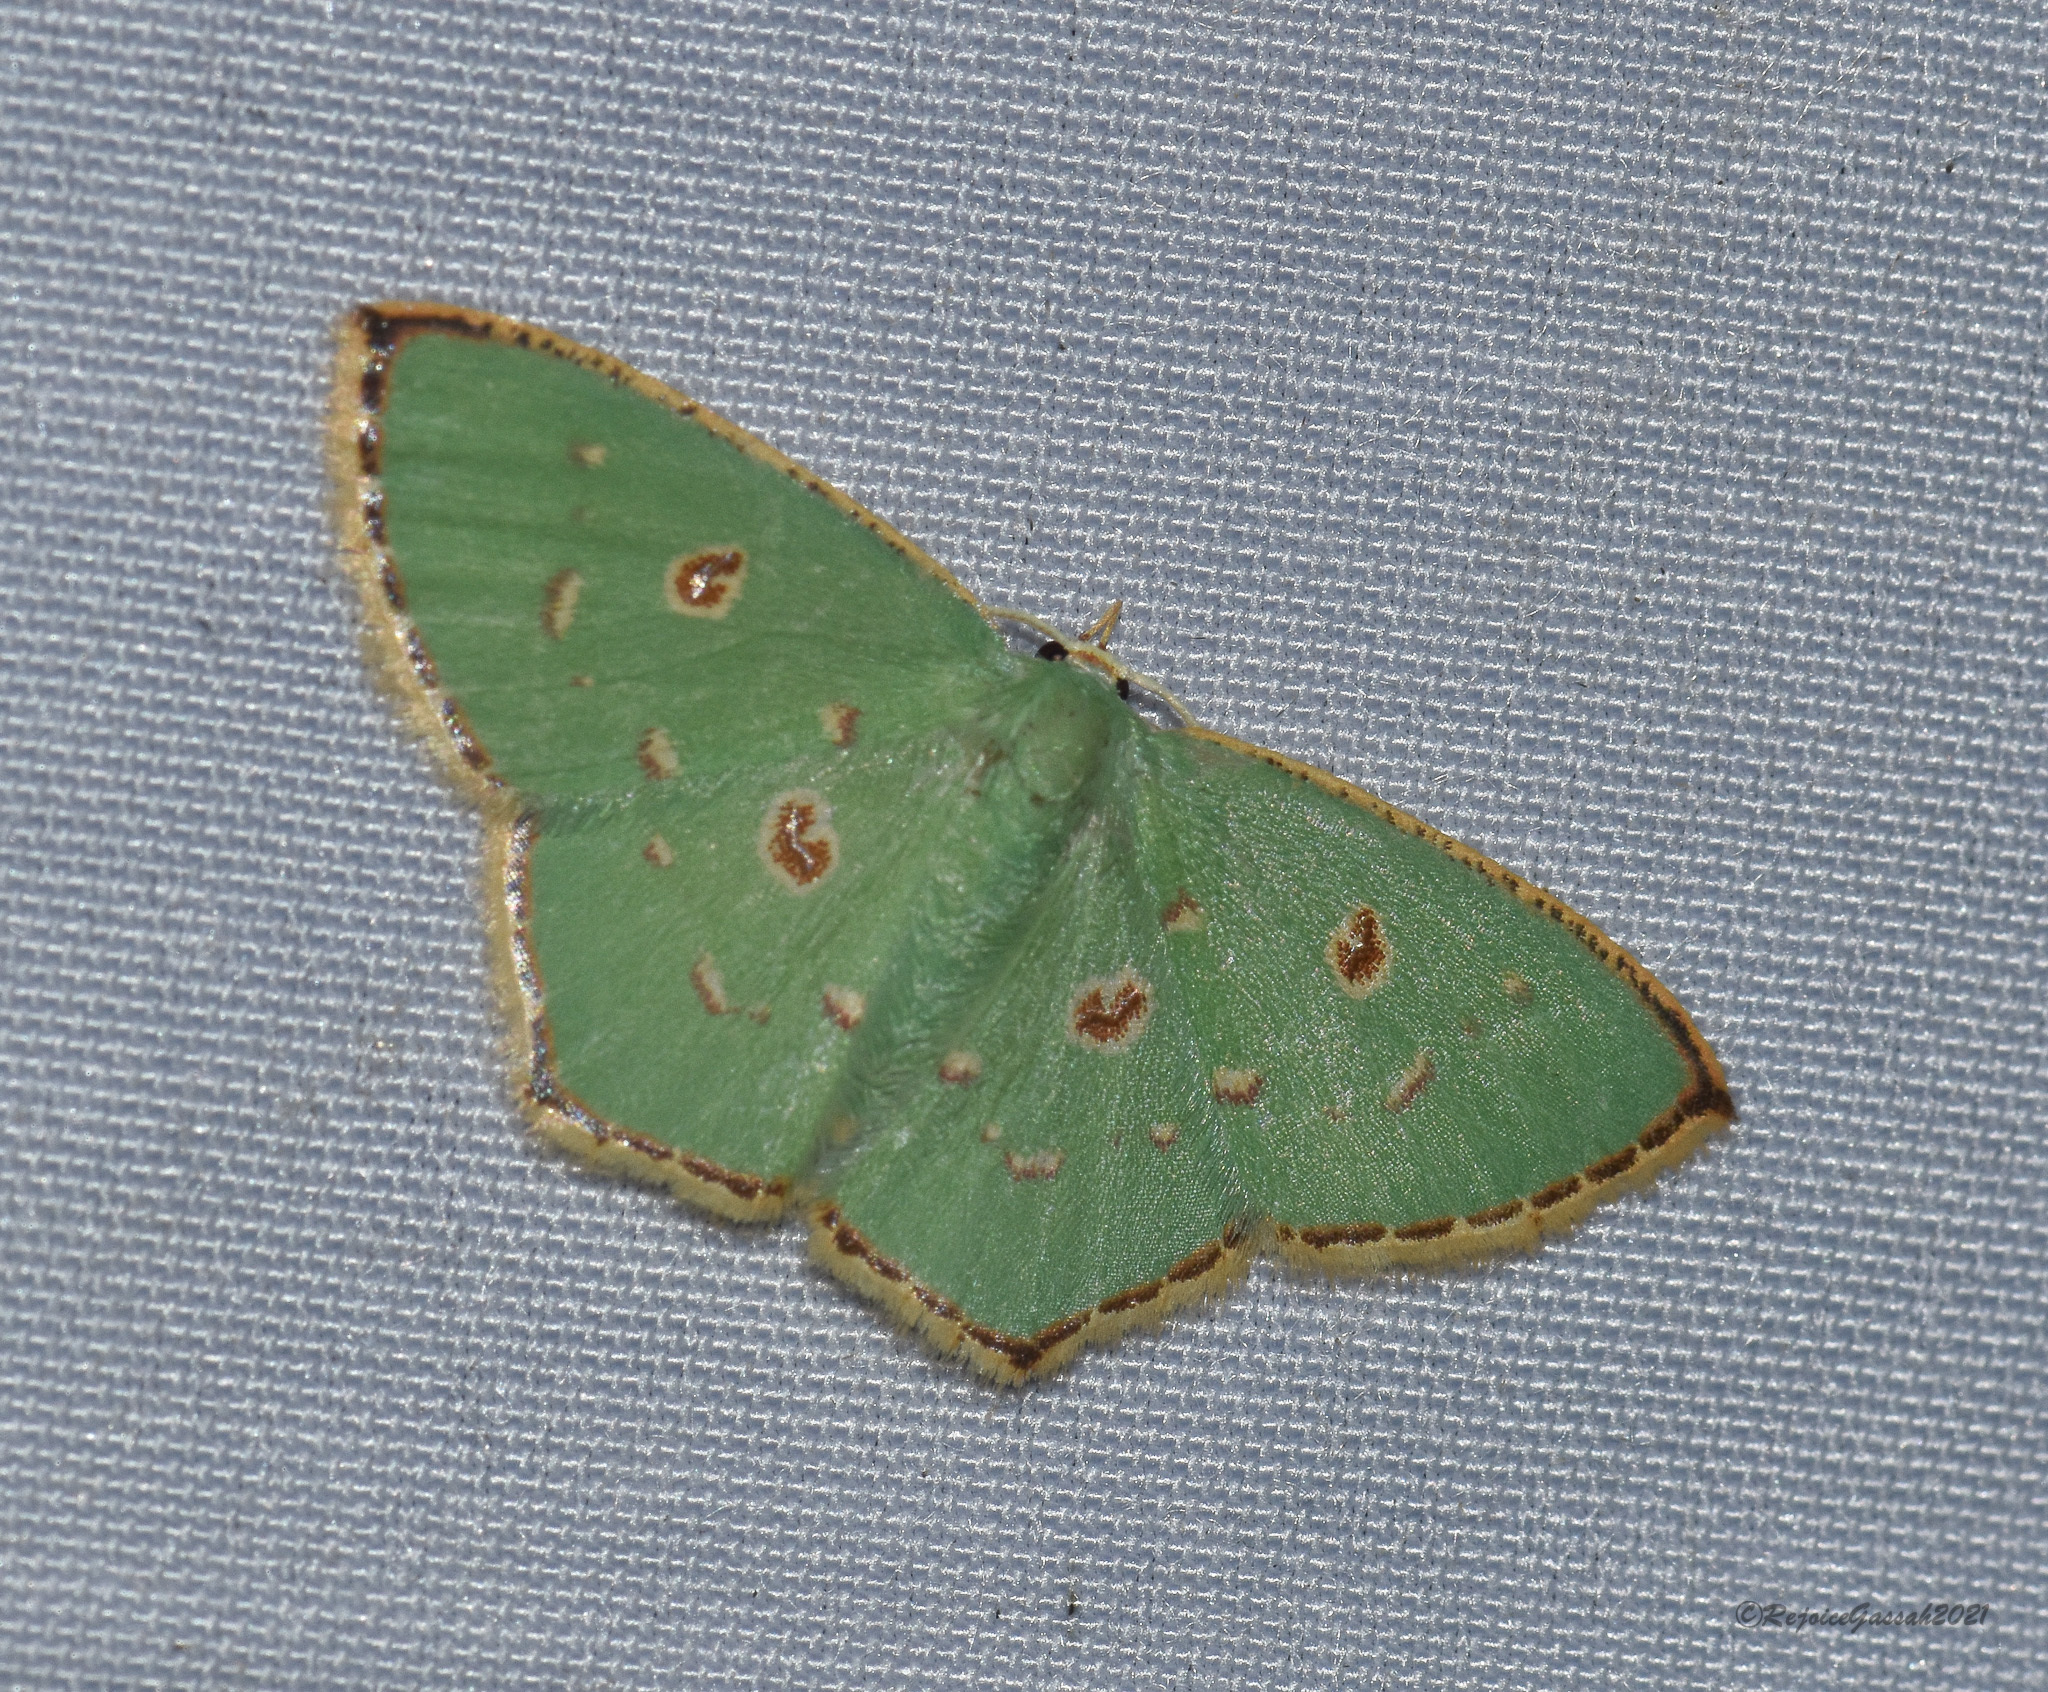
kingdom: Animalia
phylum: Arthropoda
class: Insecta
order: Lepidoptera
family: Geometridae
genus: Comostola
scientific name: Comostola laesaria
